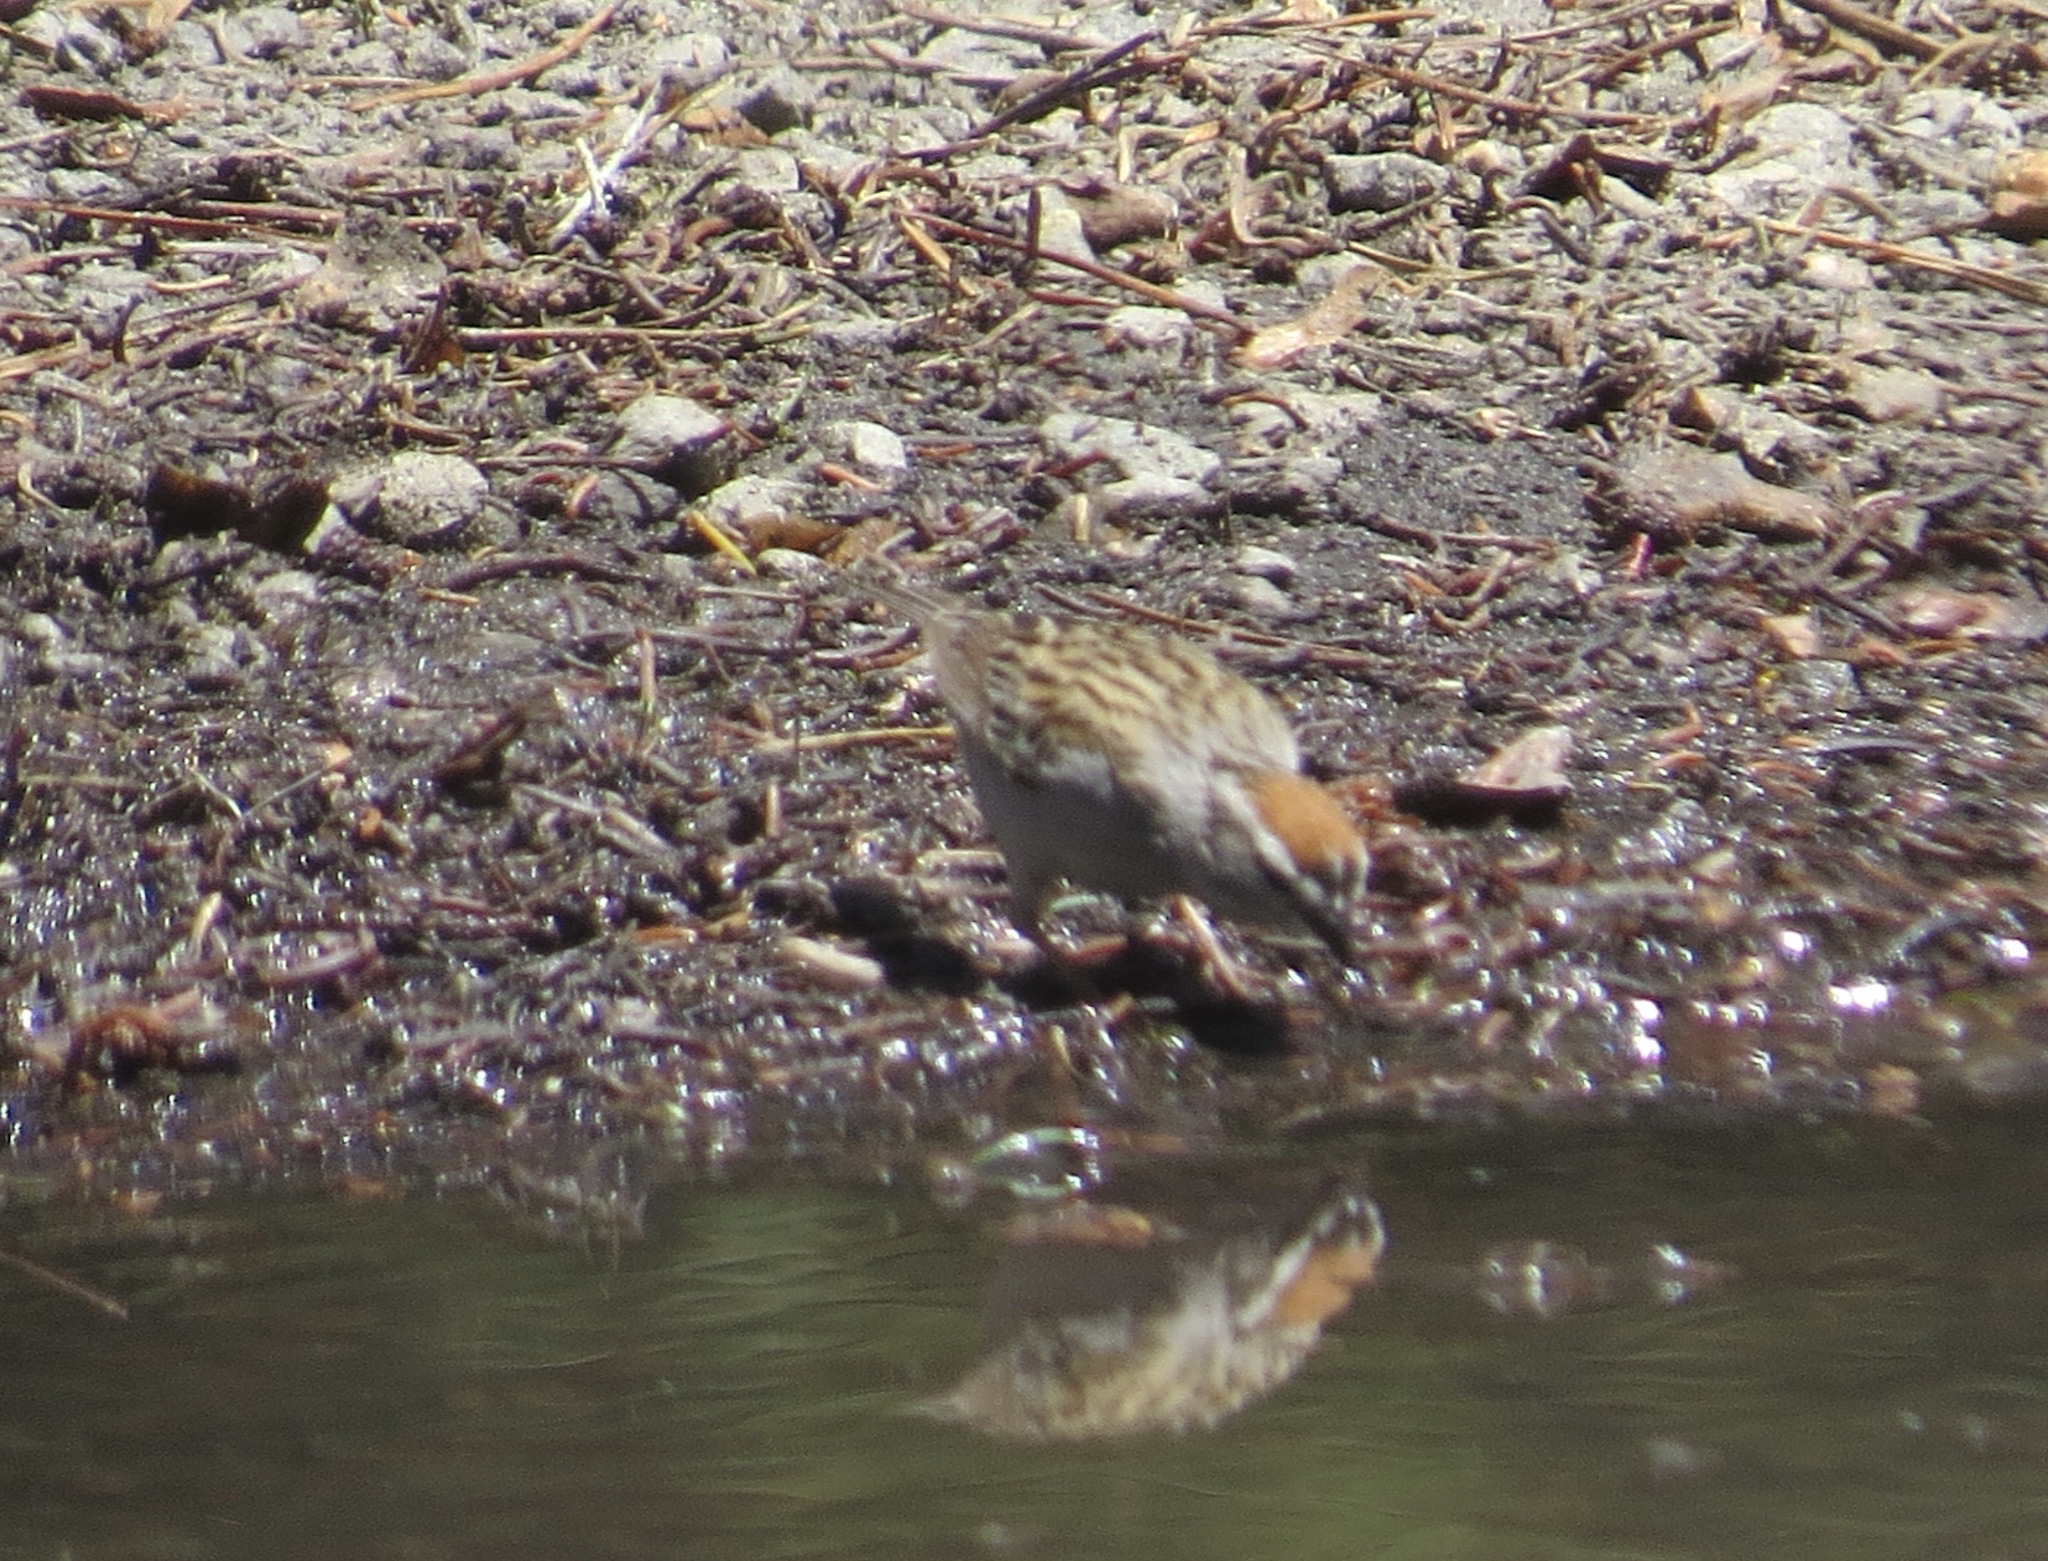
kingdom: Animalia
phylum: Chordata
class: Aves
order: Passeriformes
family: Passerellidae
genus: Spizella
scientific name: Spizella passerina
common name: Chipping sparrow
